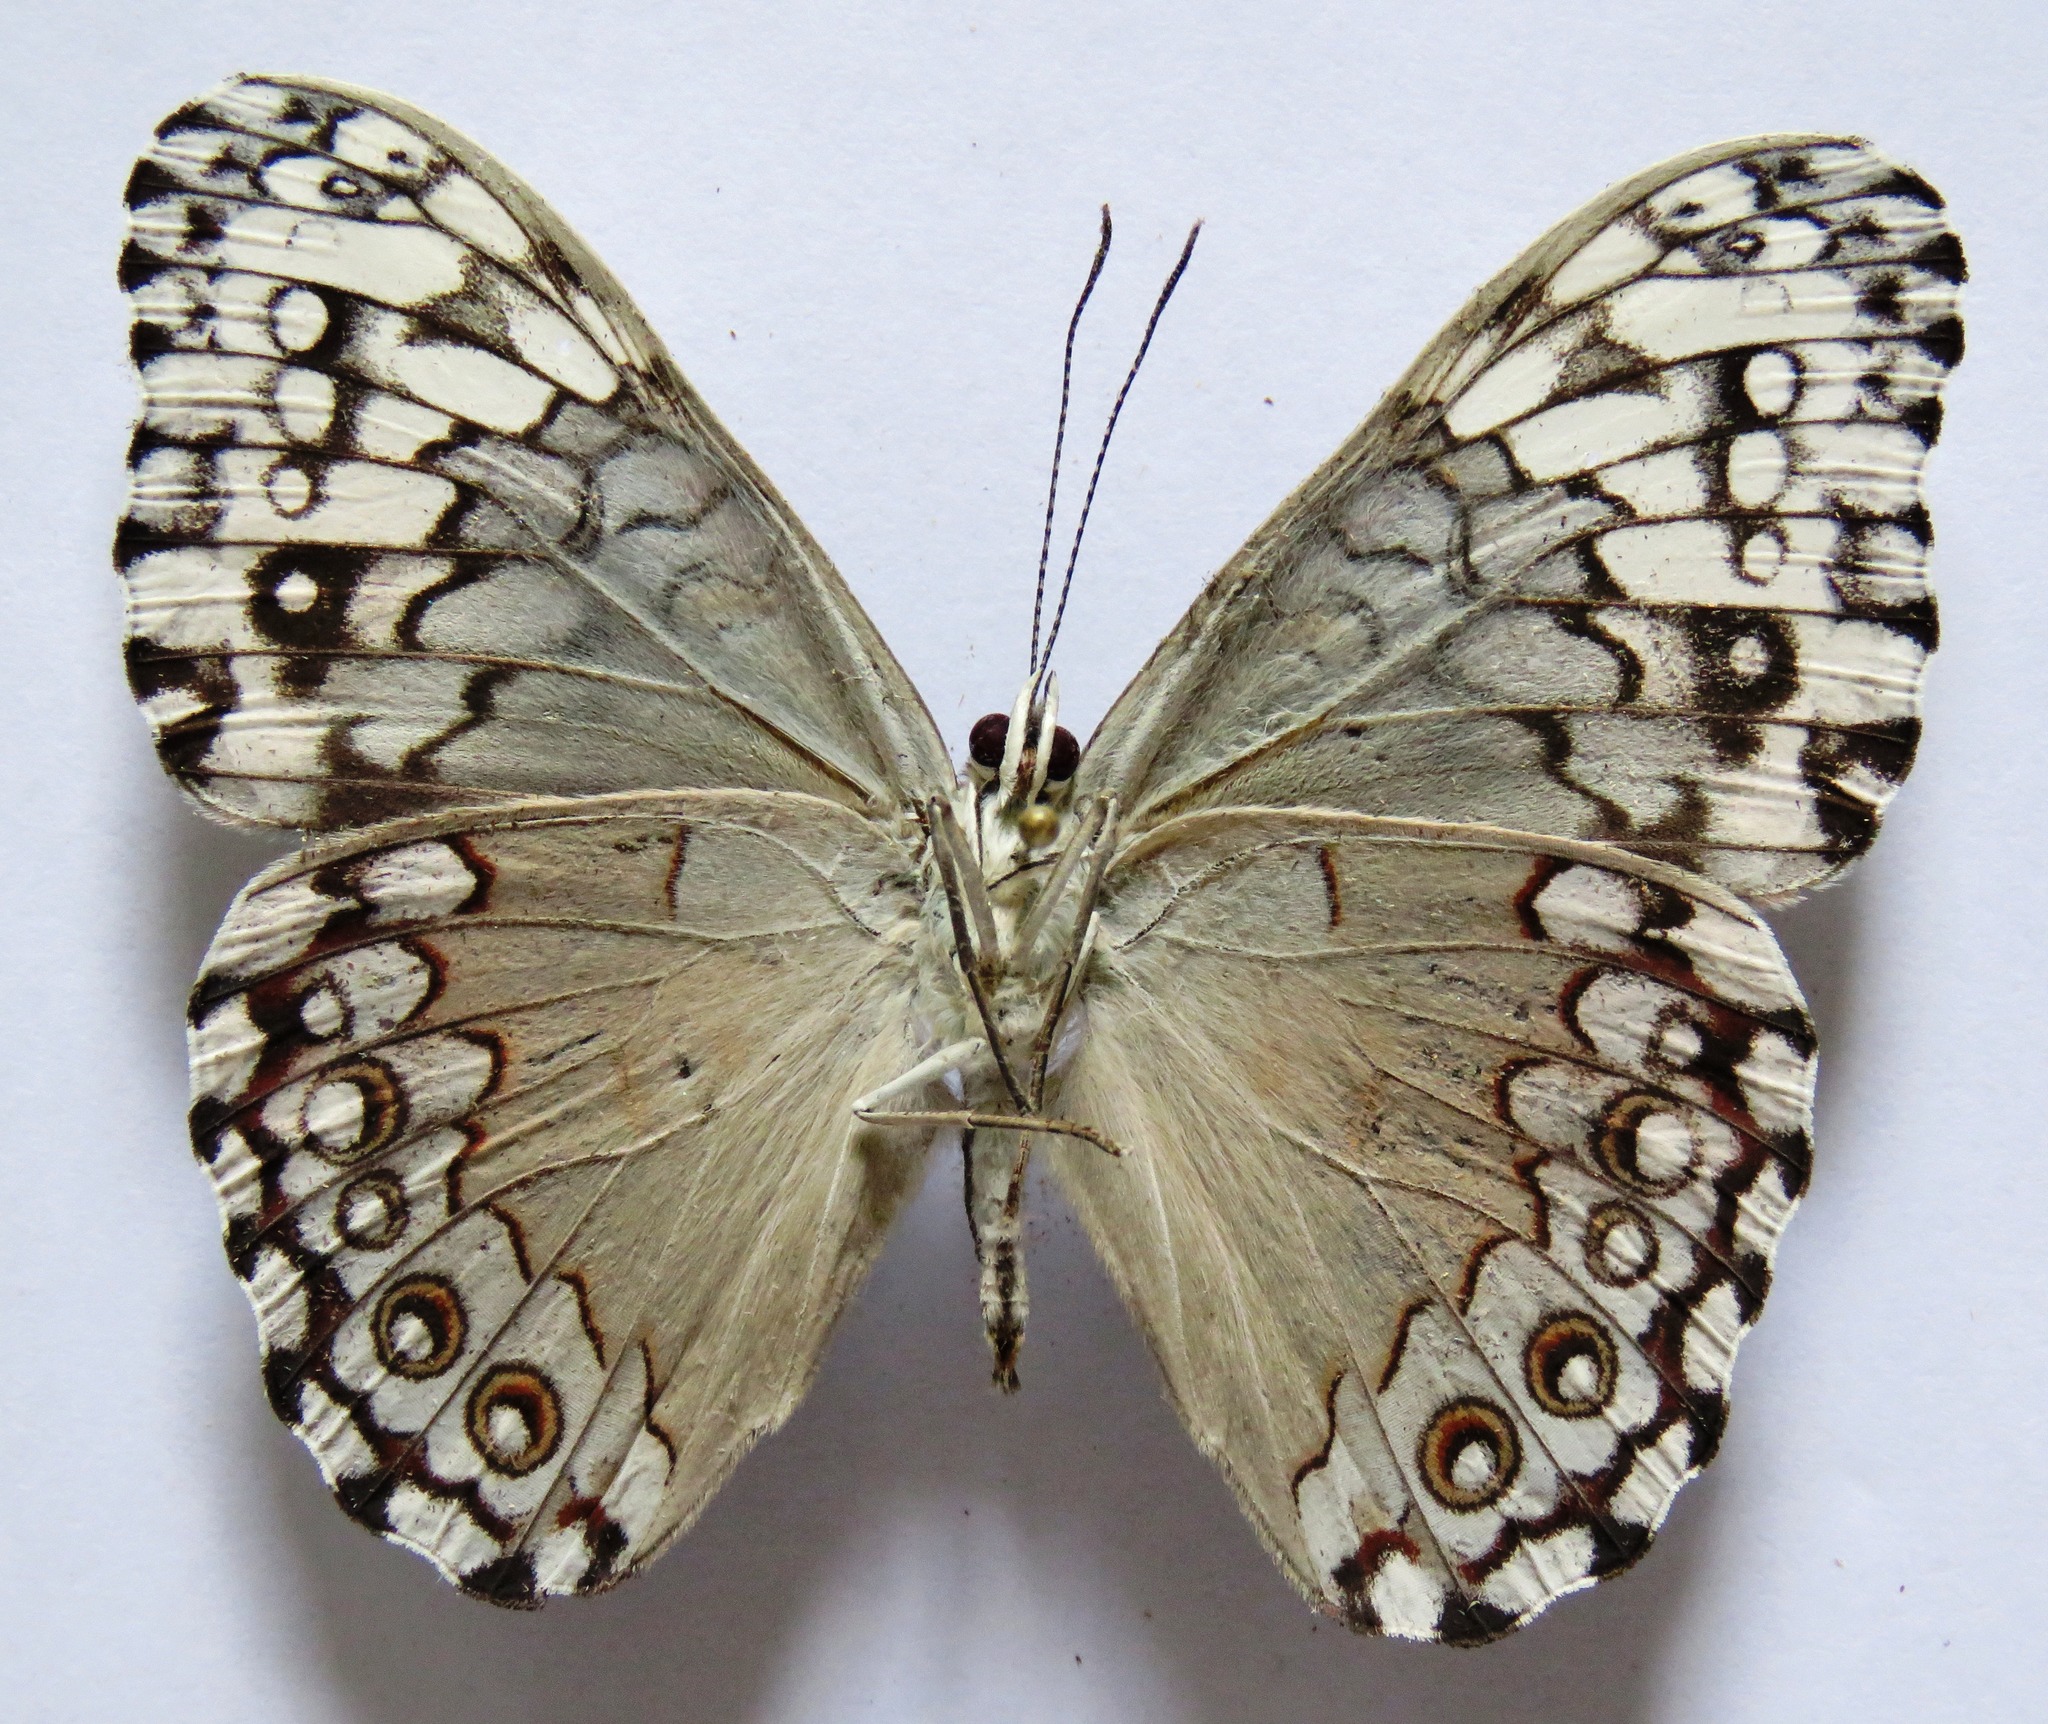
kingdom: Animalia
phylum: Arthropoda
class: Insecta
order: Lepidoptera
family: Nymphalidae
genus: Hamadryas
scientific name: Hamadryas glauconome
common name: Glaucous cracker
